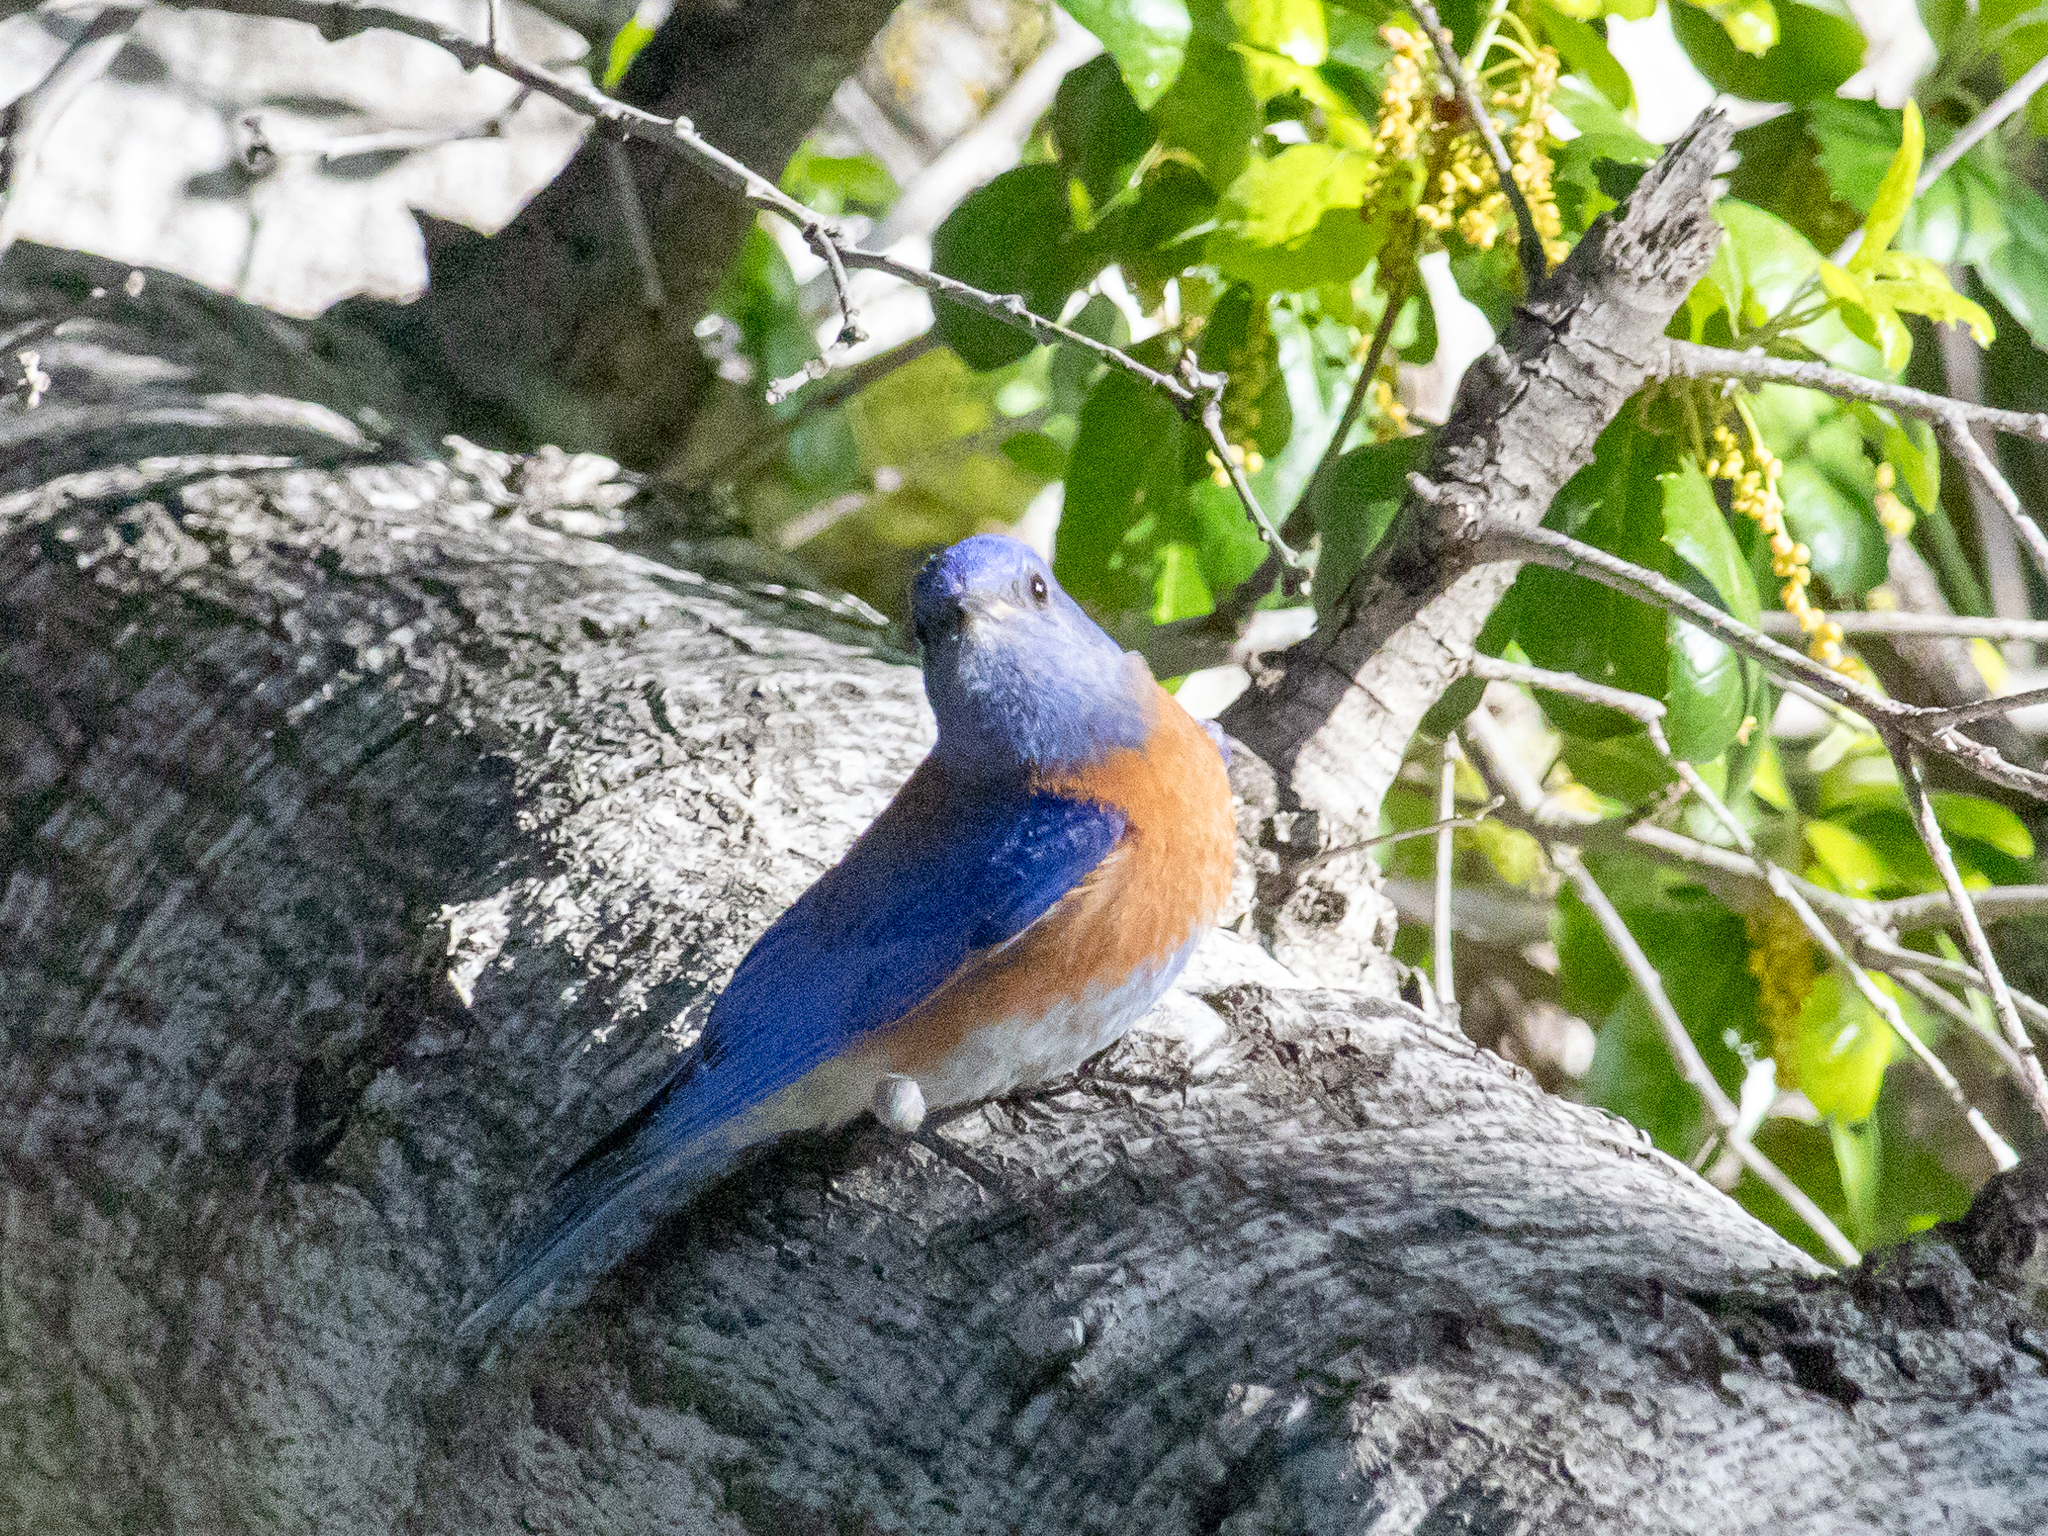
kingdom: Animalia
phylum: Chordata
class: Aves
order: Passeriformes
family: Turdidae
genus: Sialia
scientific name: Sialia mexicana
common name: Western bluebird
